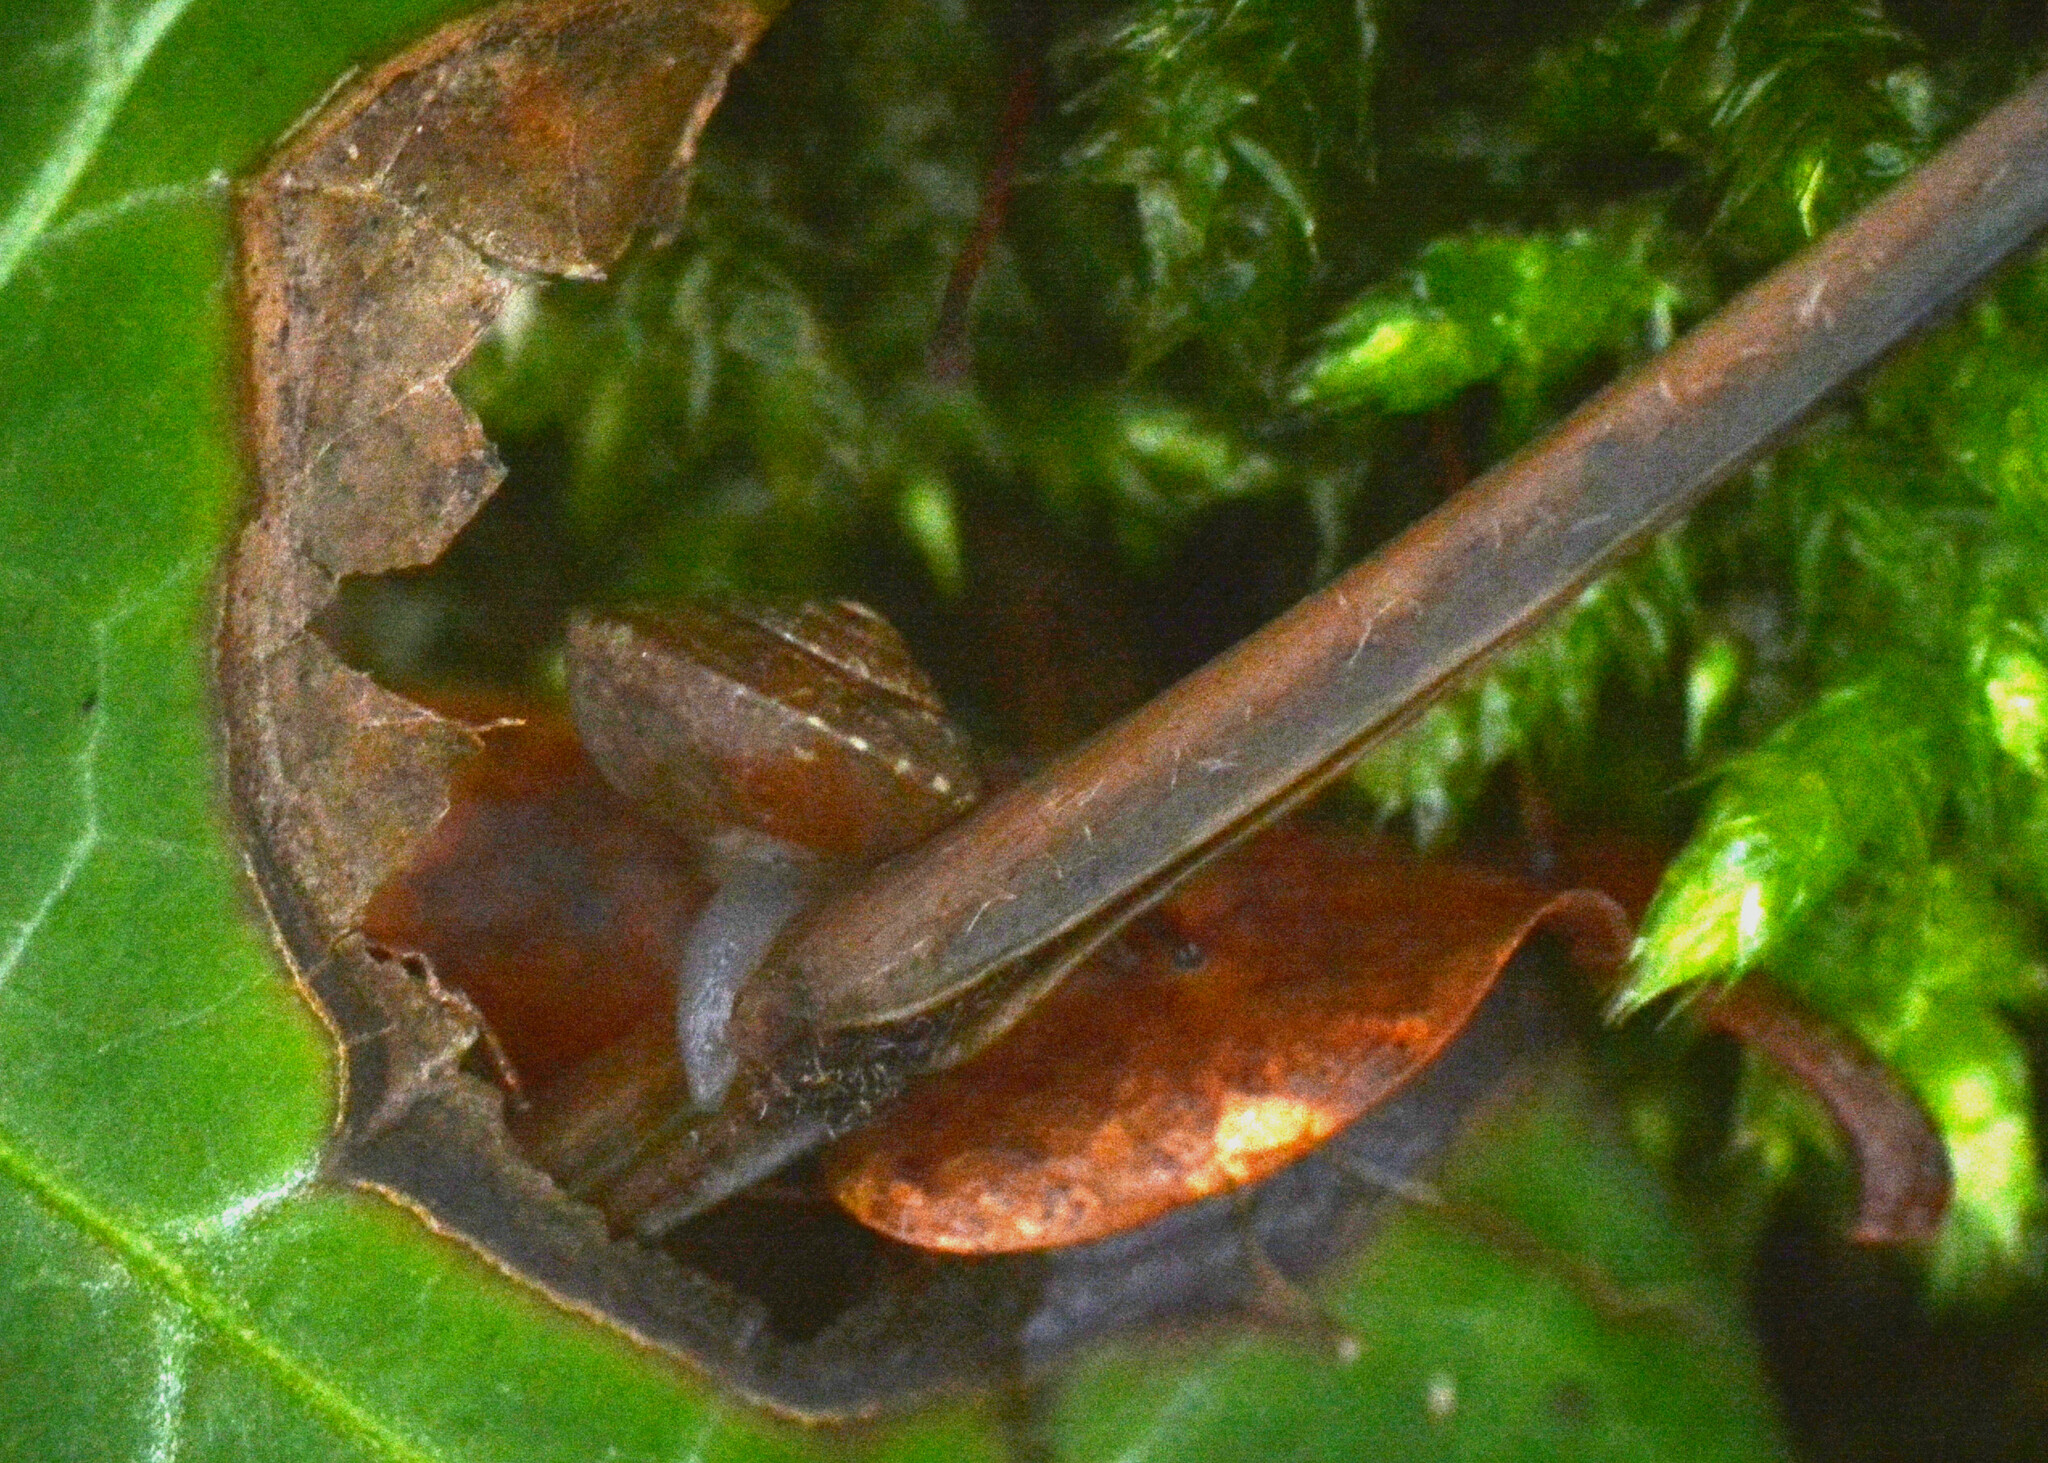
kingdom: Animalia
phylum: Mollusca
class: Gastropoda
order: Stylommatophora
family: Hygromiidae
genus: Hygromia
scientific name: Hygromia cinctella
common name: Girdled snail
